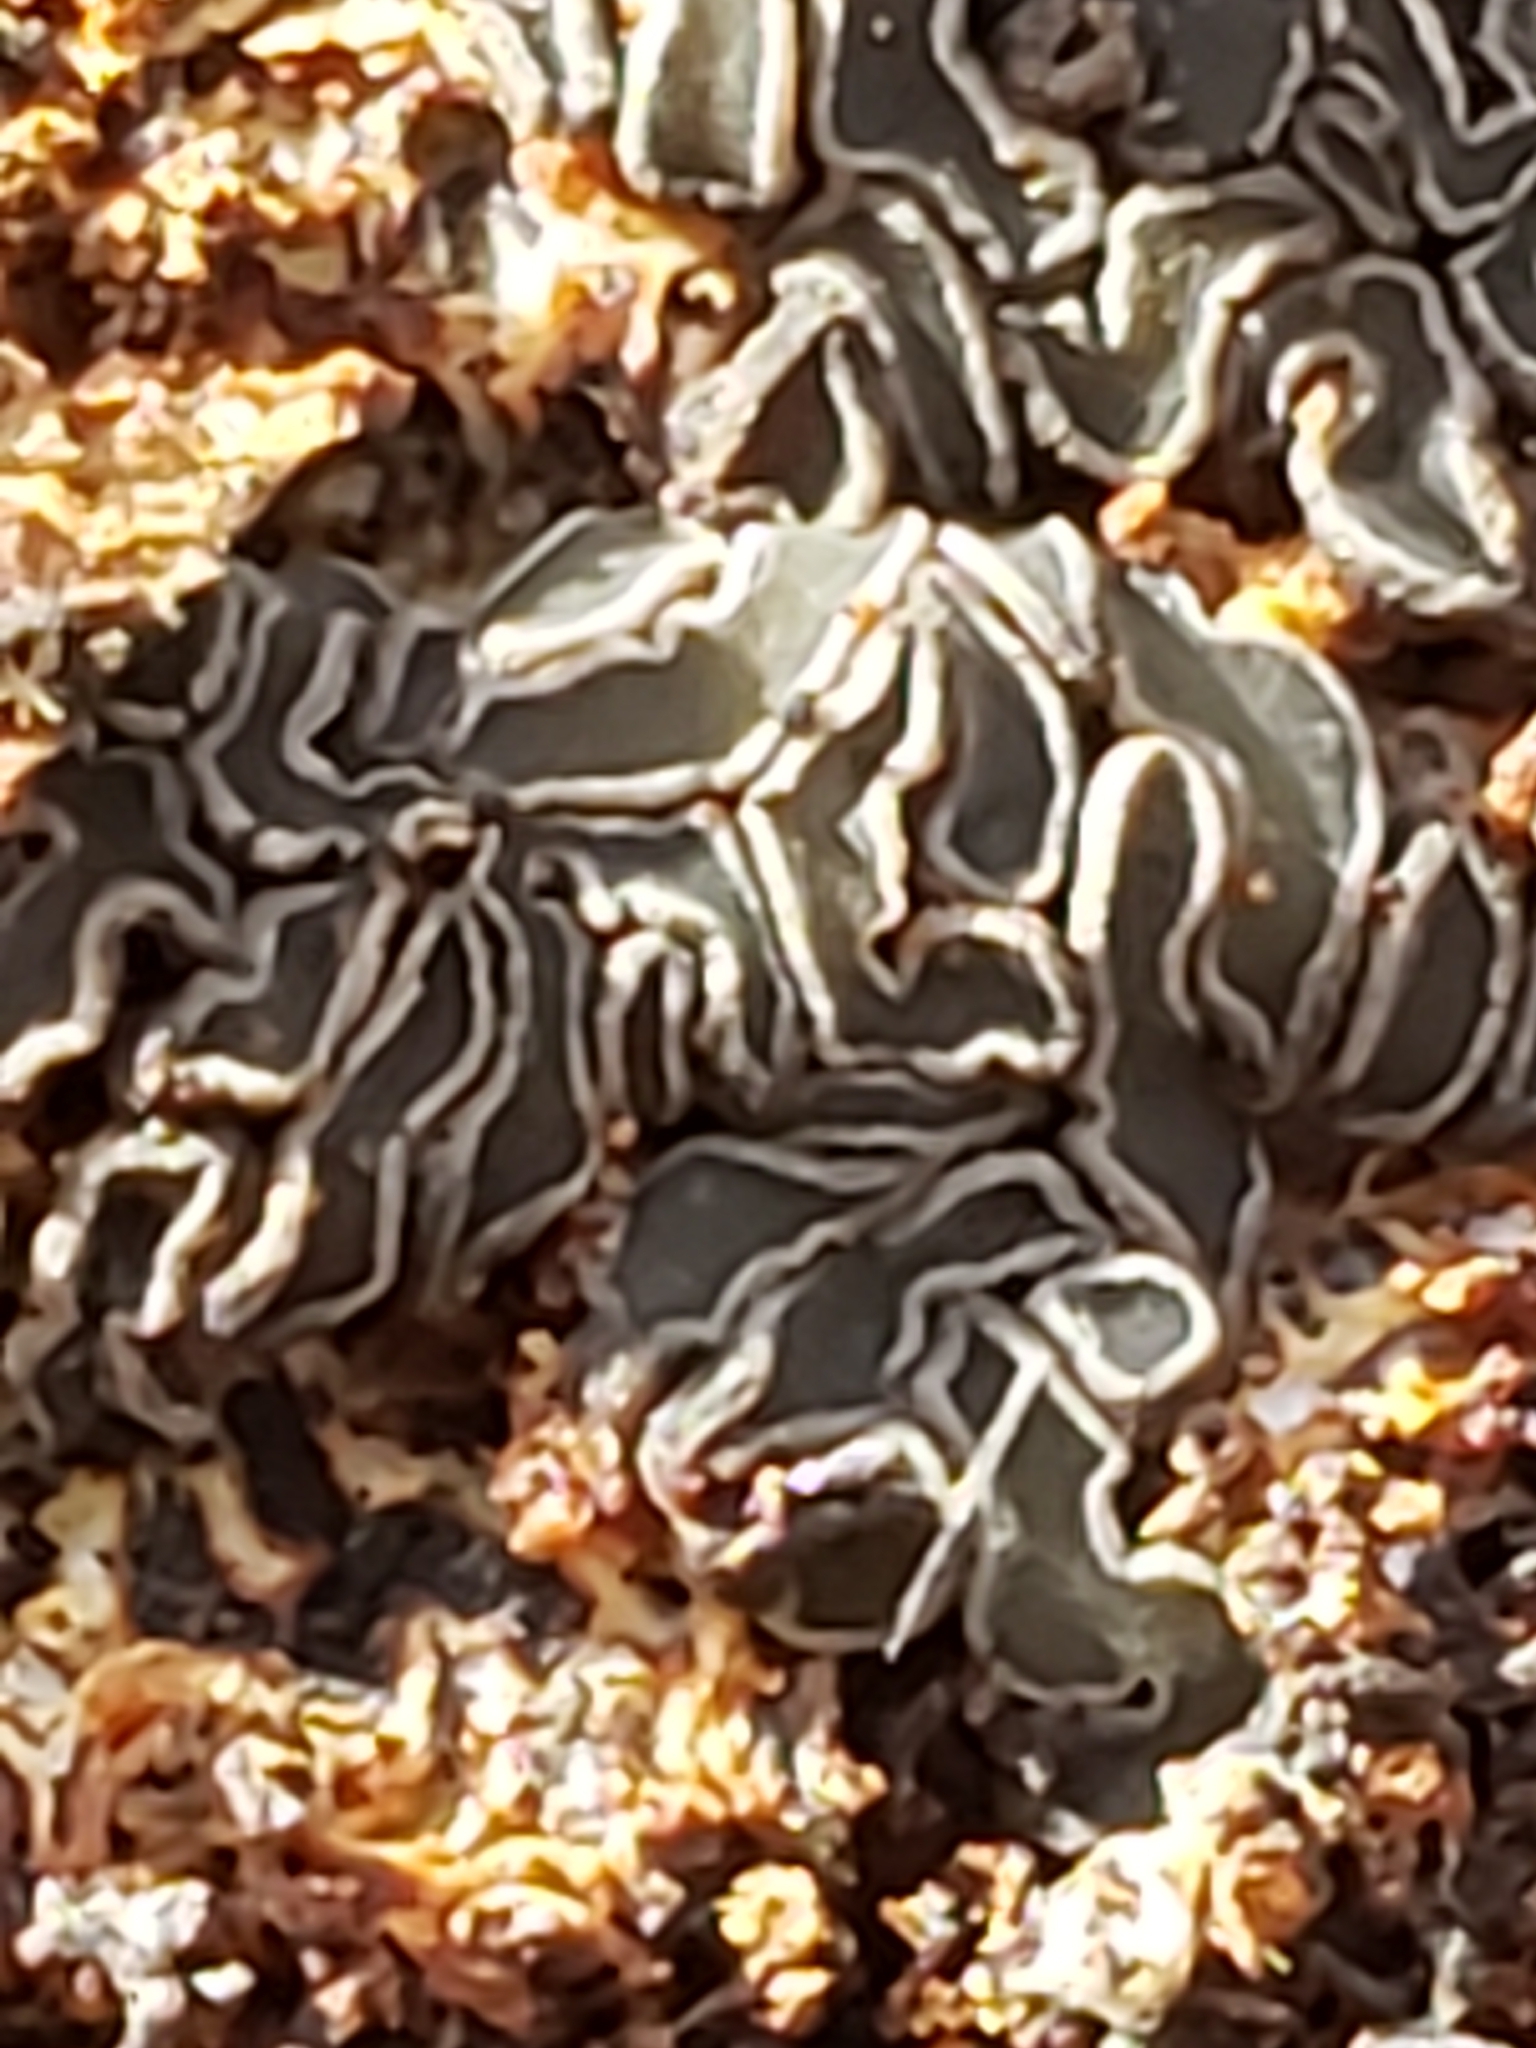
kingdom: Fungi
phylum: Ascomycota
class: Leotiomycetes
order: Helotiales
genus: Angelina
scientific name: Angelina rufescens
